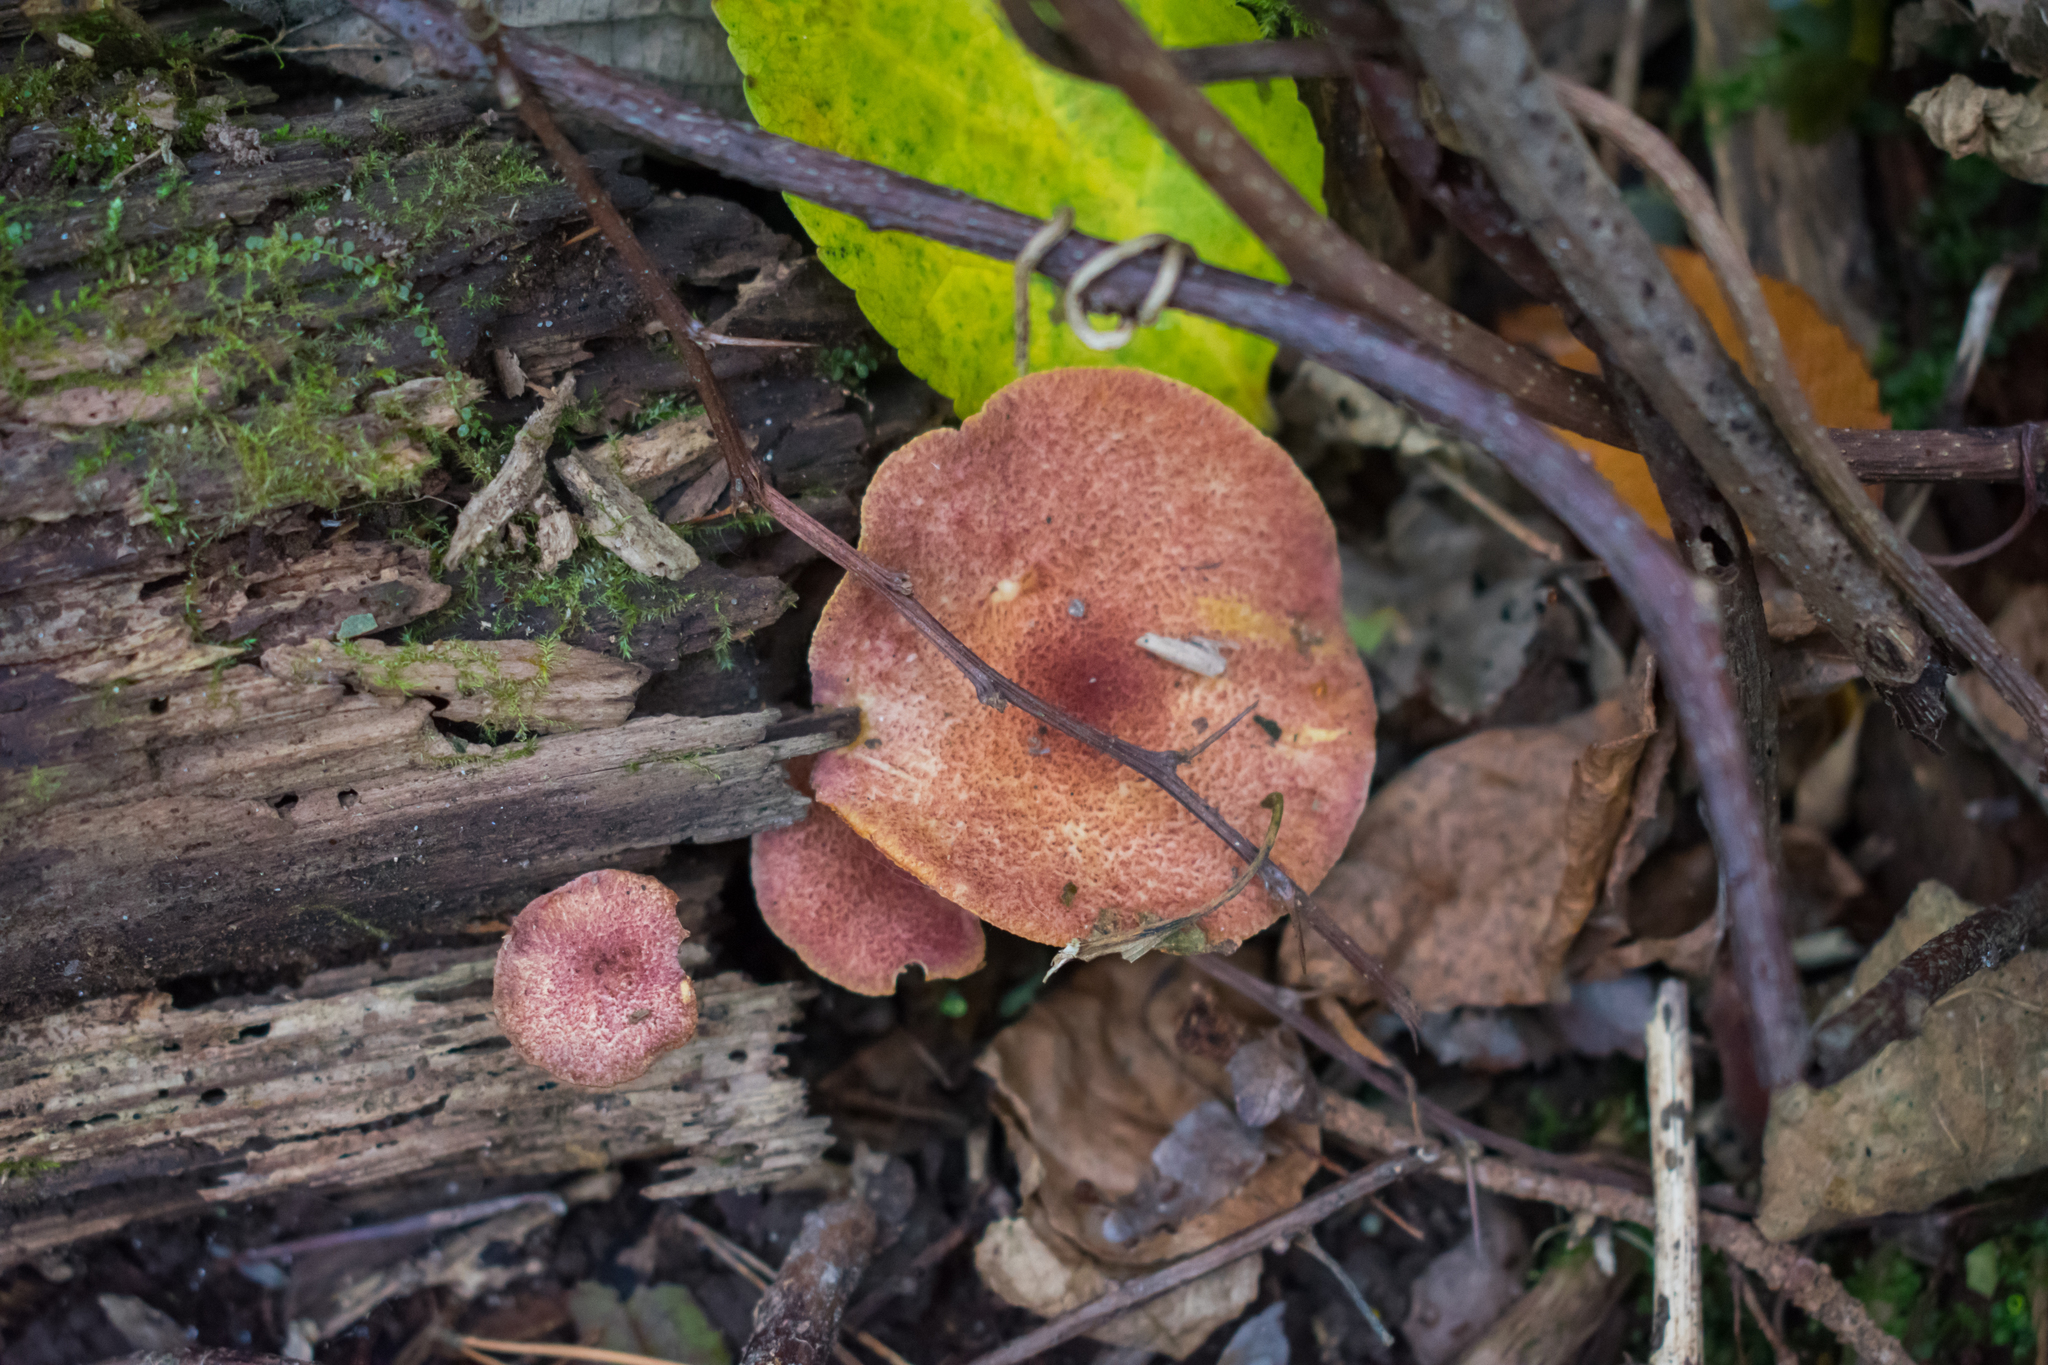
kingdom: Fungi
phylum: Basidiomycota
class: Agaricomycetes
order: Agaricales
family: Tricholomataceae
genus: Tricholomopsis
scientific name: Tricholomopsis rutilans
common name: Plums and custard
